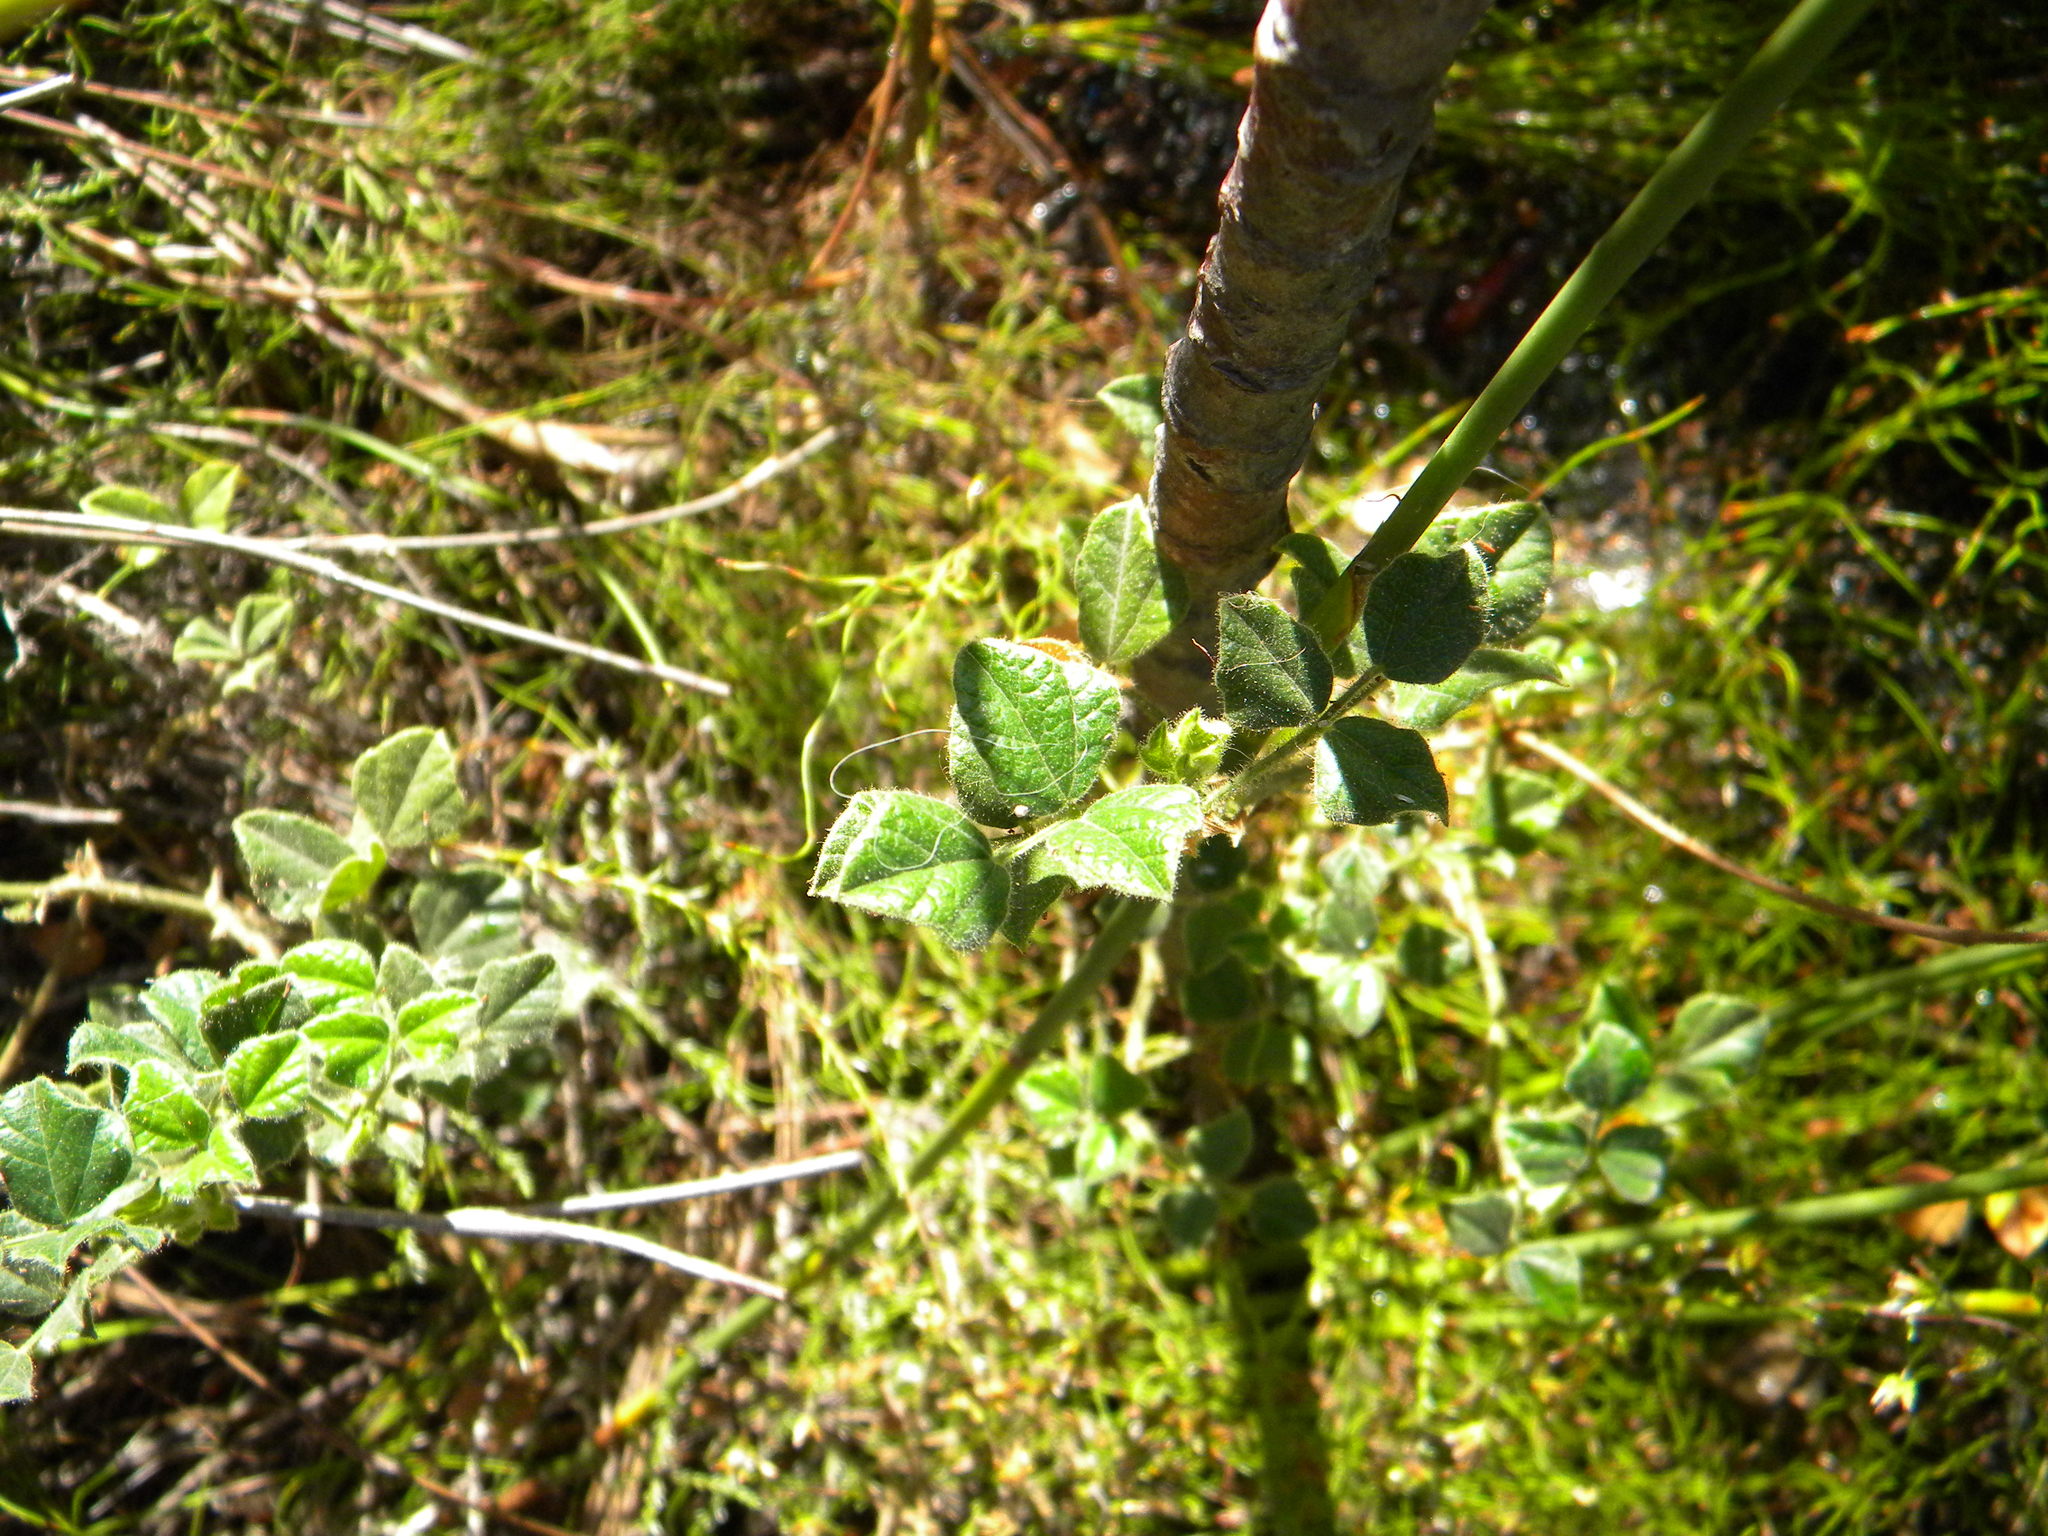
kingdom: Plantae
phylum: Tracheophyta
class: Magnoliopsida
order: Fabales
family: Fabaceae
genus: Bolusafra
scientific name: Bolusafra bituminosa
